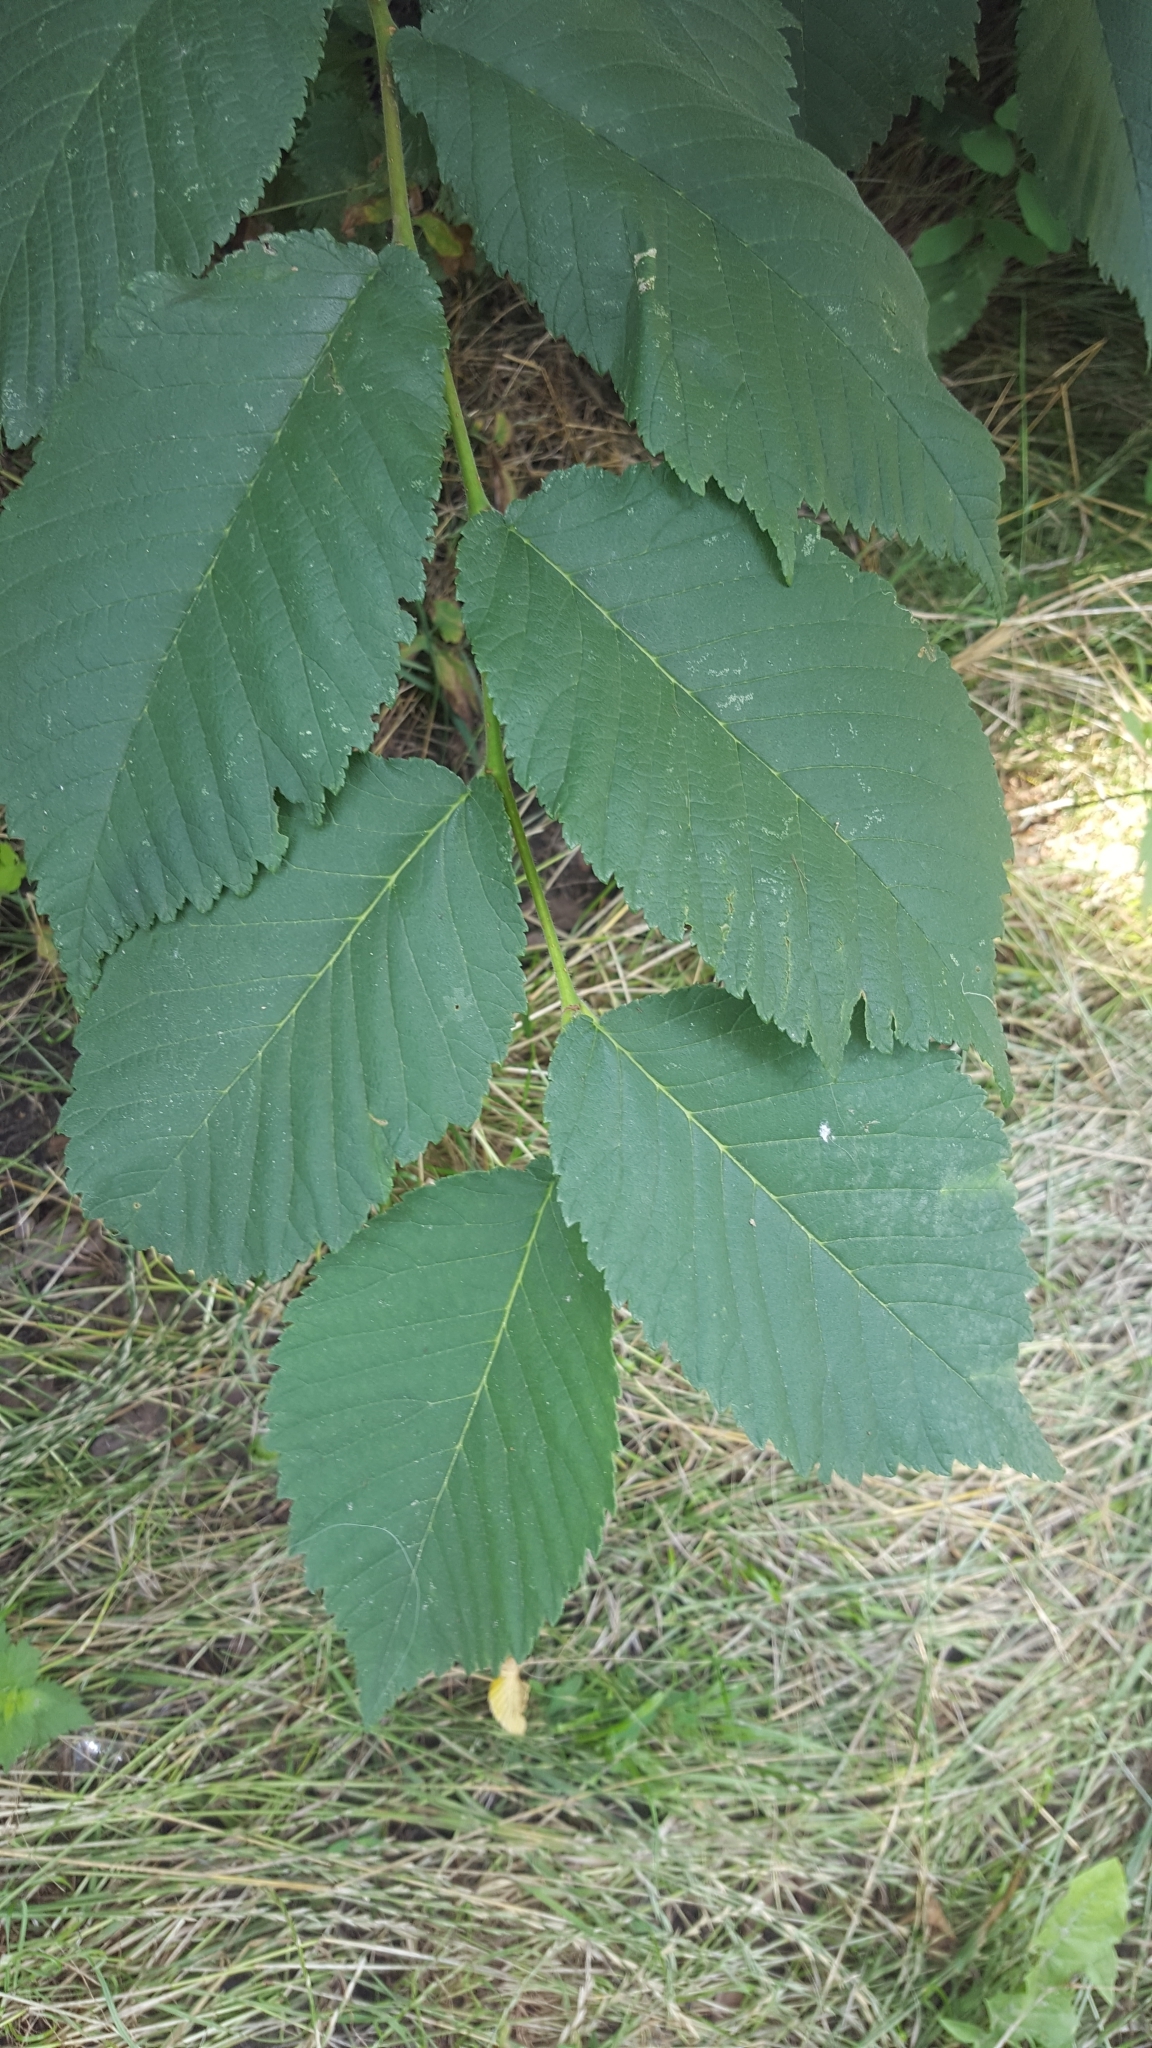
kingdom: Plantae
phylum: Tracheophyta
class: Magnoliopsida
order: Rosales
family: Ulmaceae
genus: Ulmus
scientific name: Ulmus glabra
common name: Wych elm
